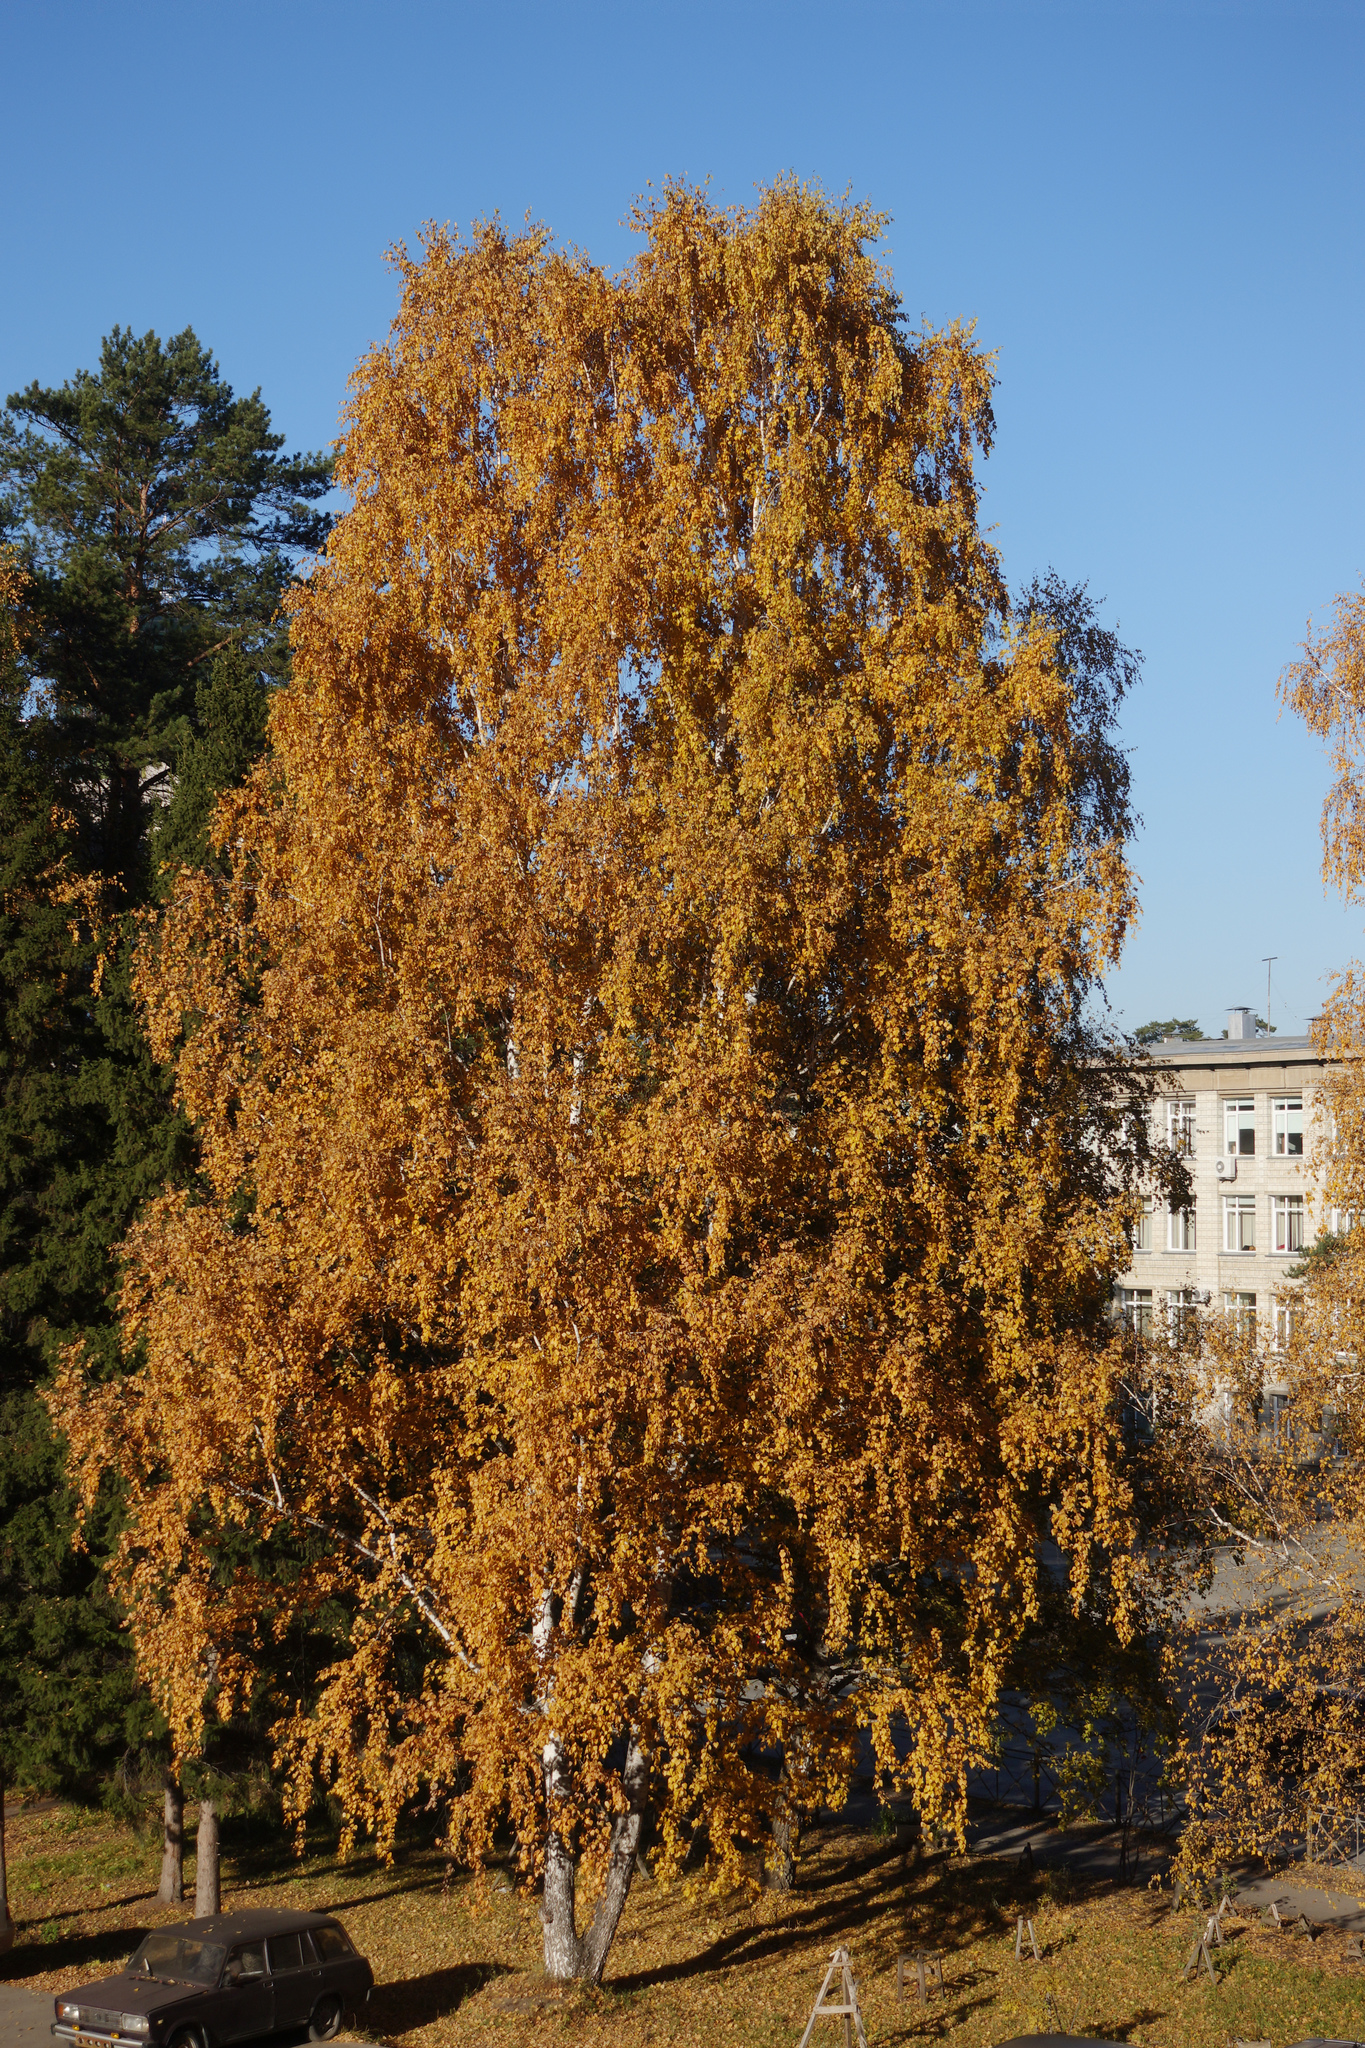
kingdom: Plantae
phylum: Tracheophyta
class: Magnoliopsida
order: Fagales
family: Betulaceae
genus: Betula
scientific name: Betula pendula
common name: Silver birch
